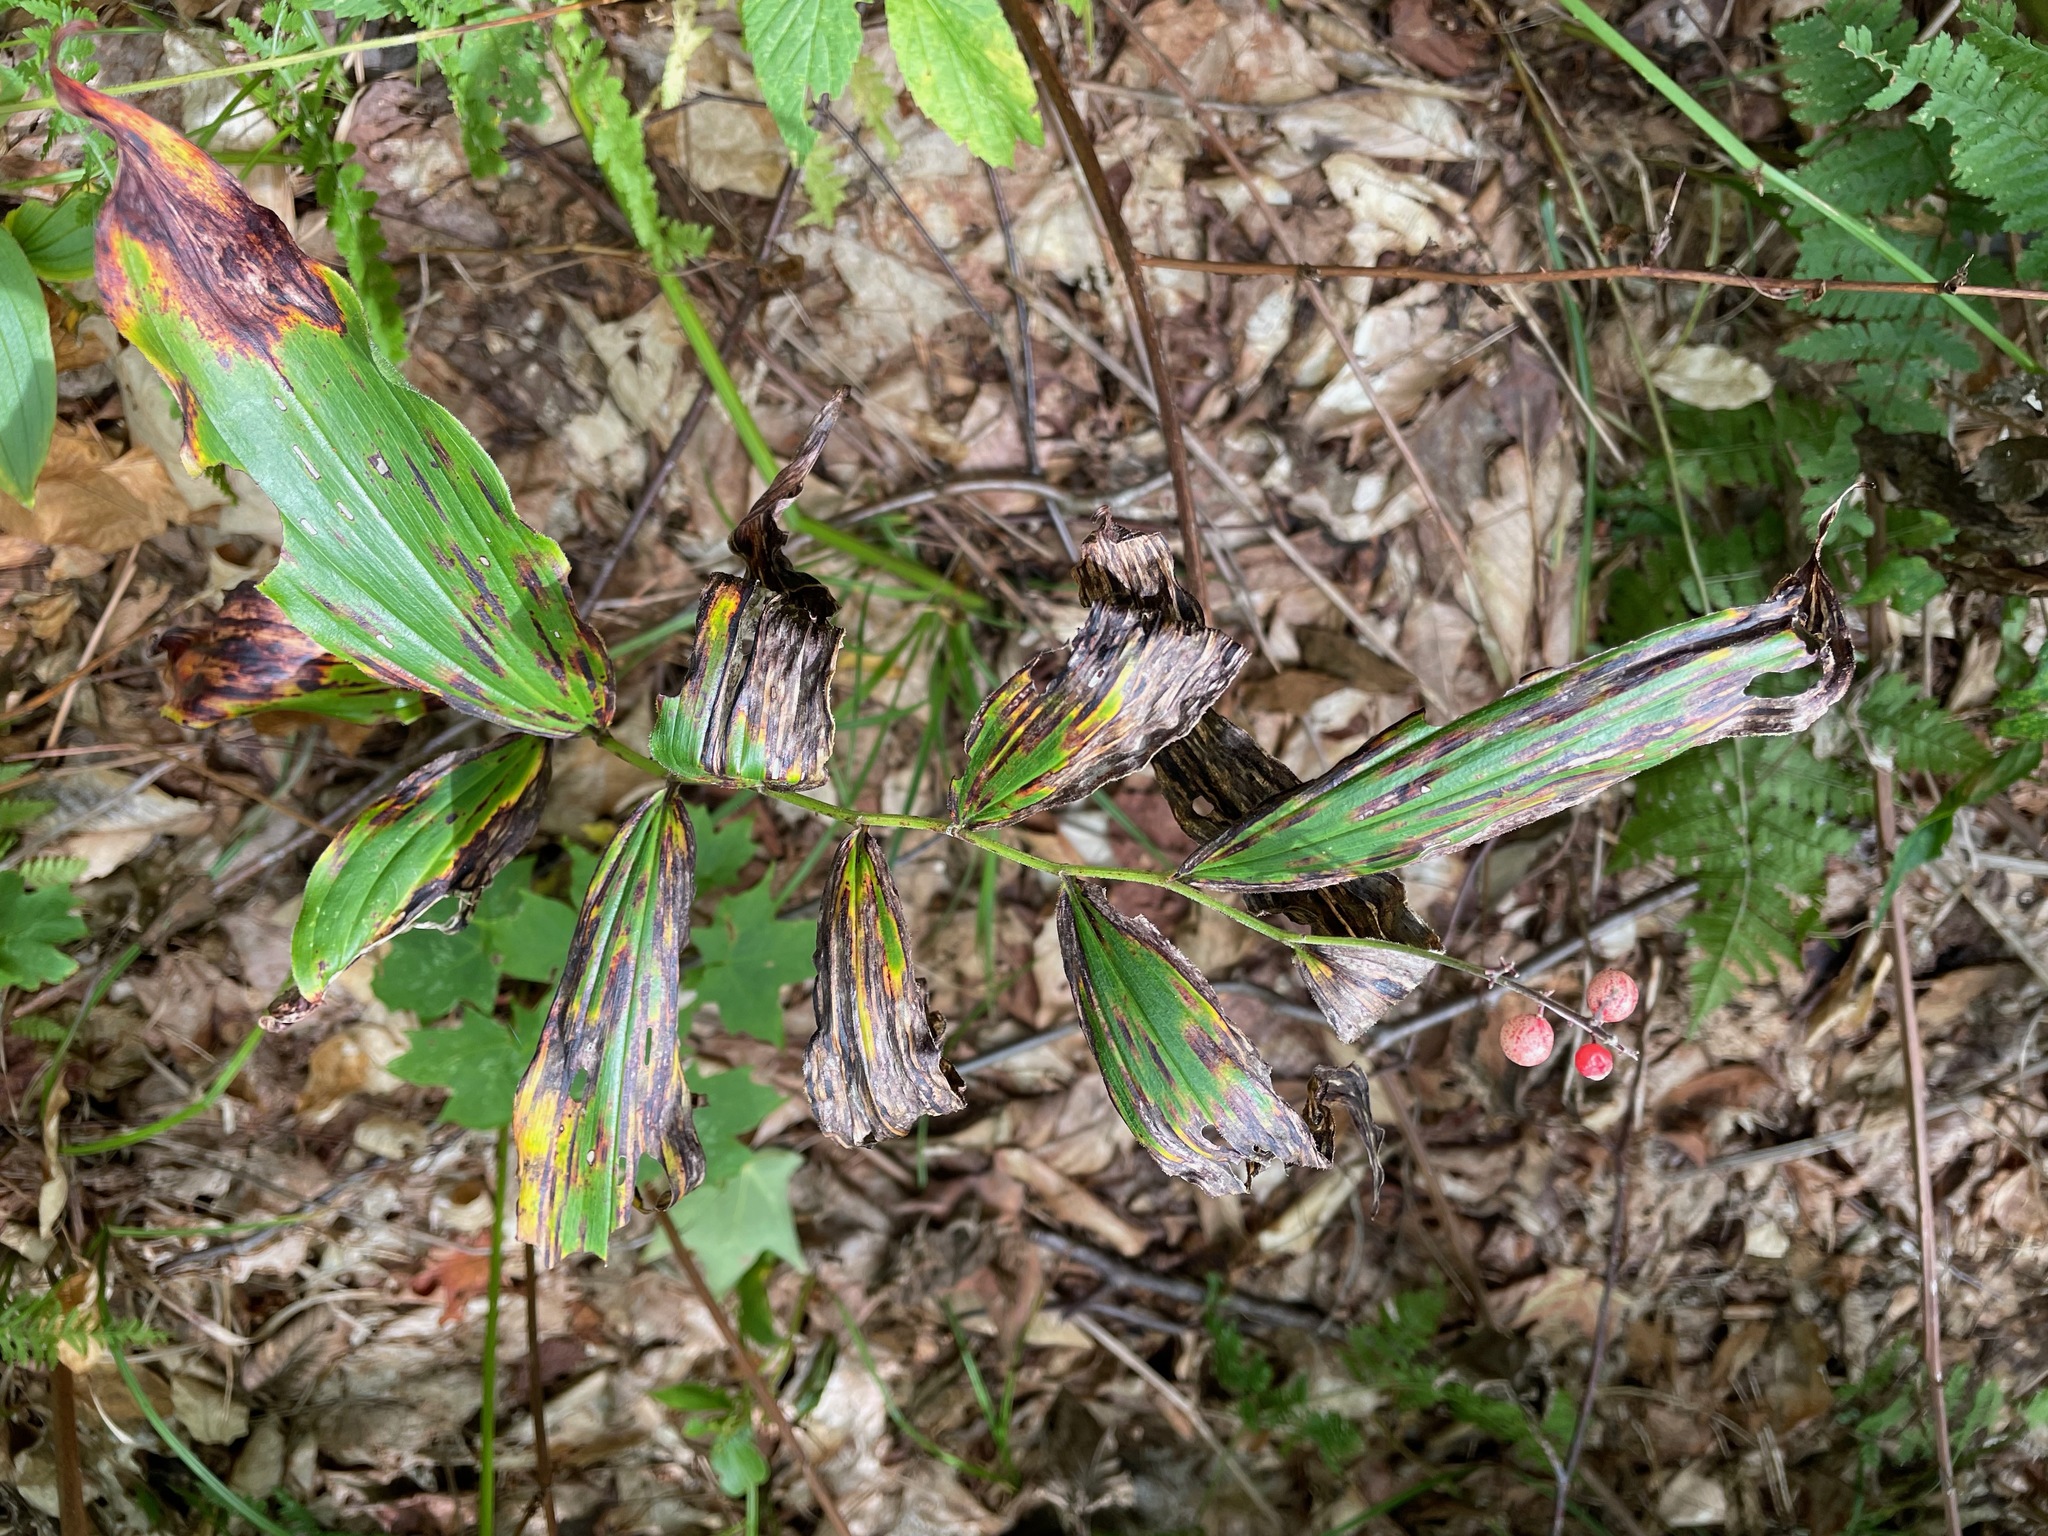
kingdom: Plantae
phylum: Tracheophyta
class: Liliopsida
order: Asparagales
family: Asparagaceae
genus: Maianthemum
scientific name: Maianthemum racemosum
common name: False spikenard
